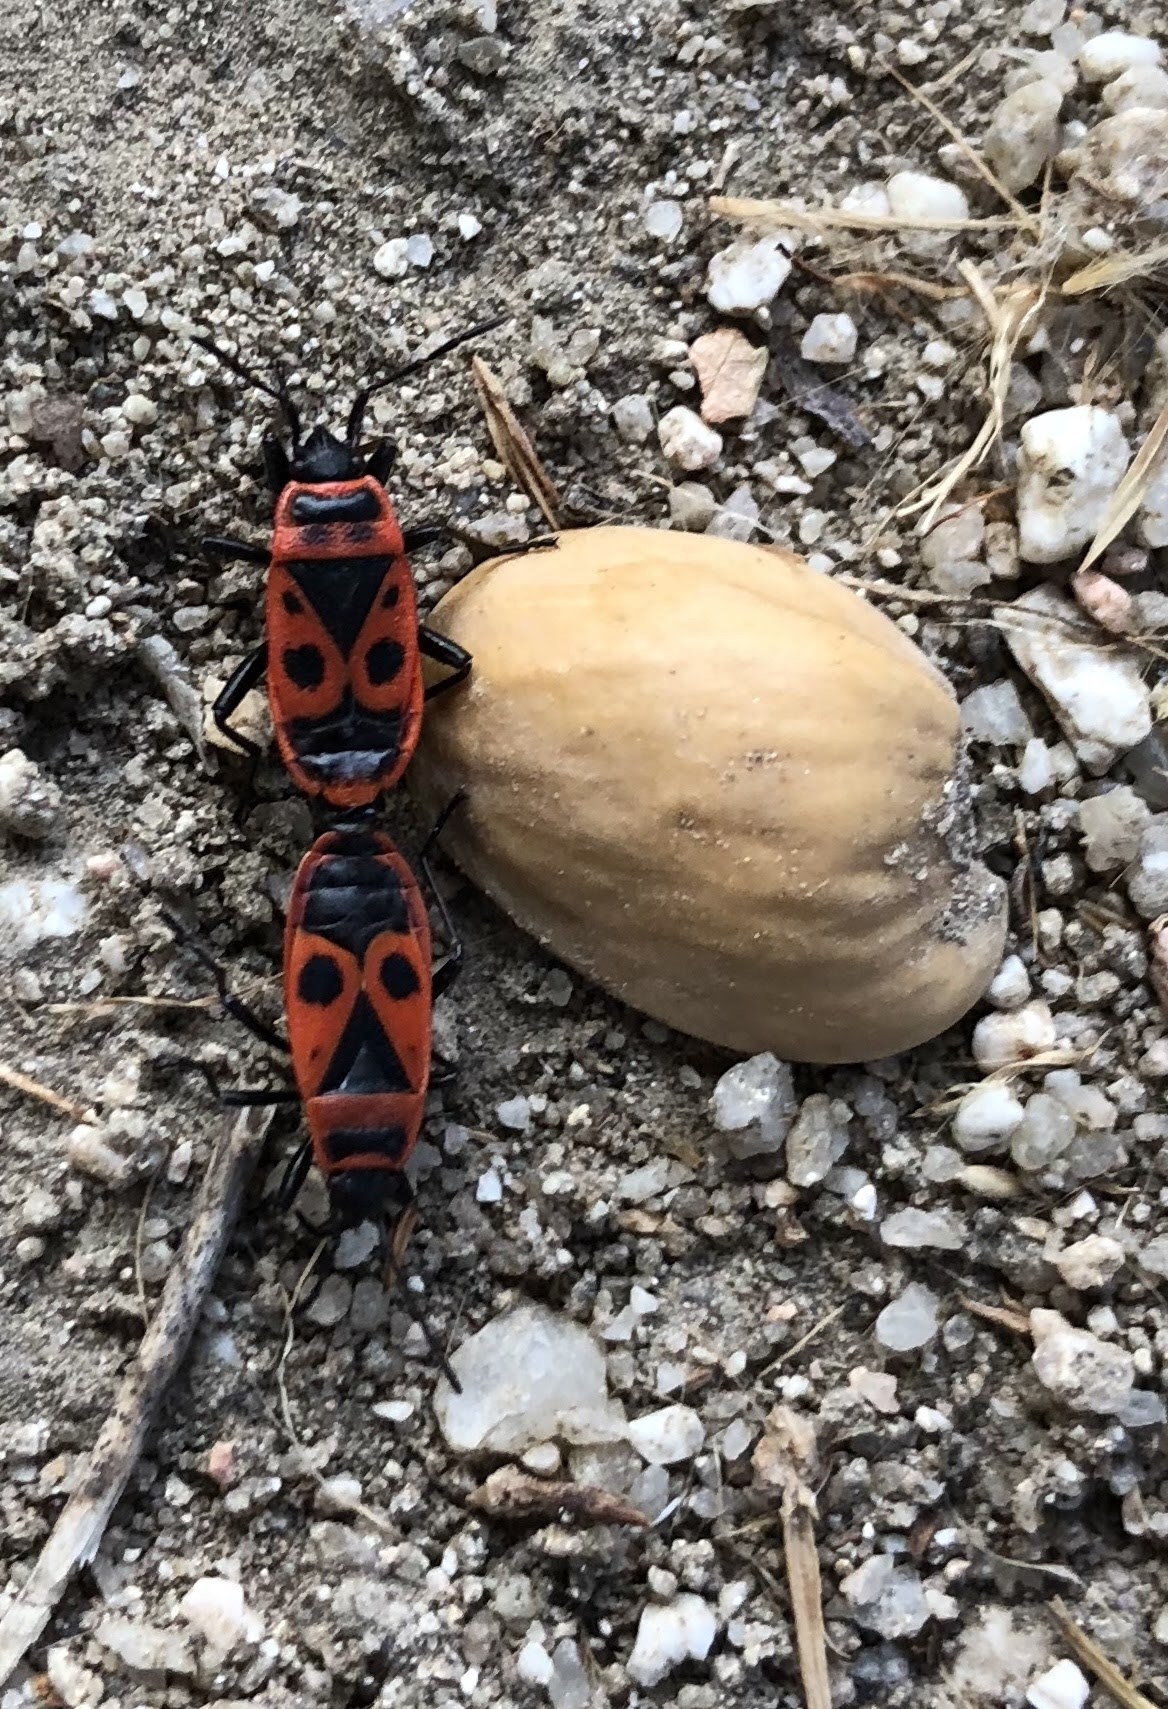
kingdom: Animalia
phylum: Arthropoda
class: Insecta
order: Hemiptera
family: Pyrrhocoridae
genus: Pyrrhocoris
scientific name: Pyrrhocoris apterus
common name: Firebug
